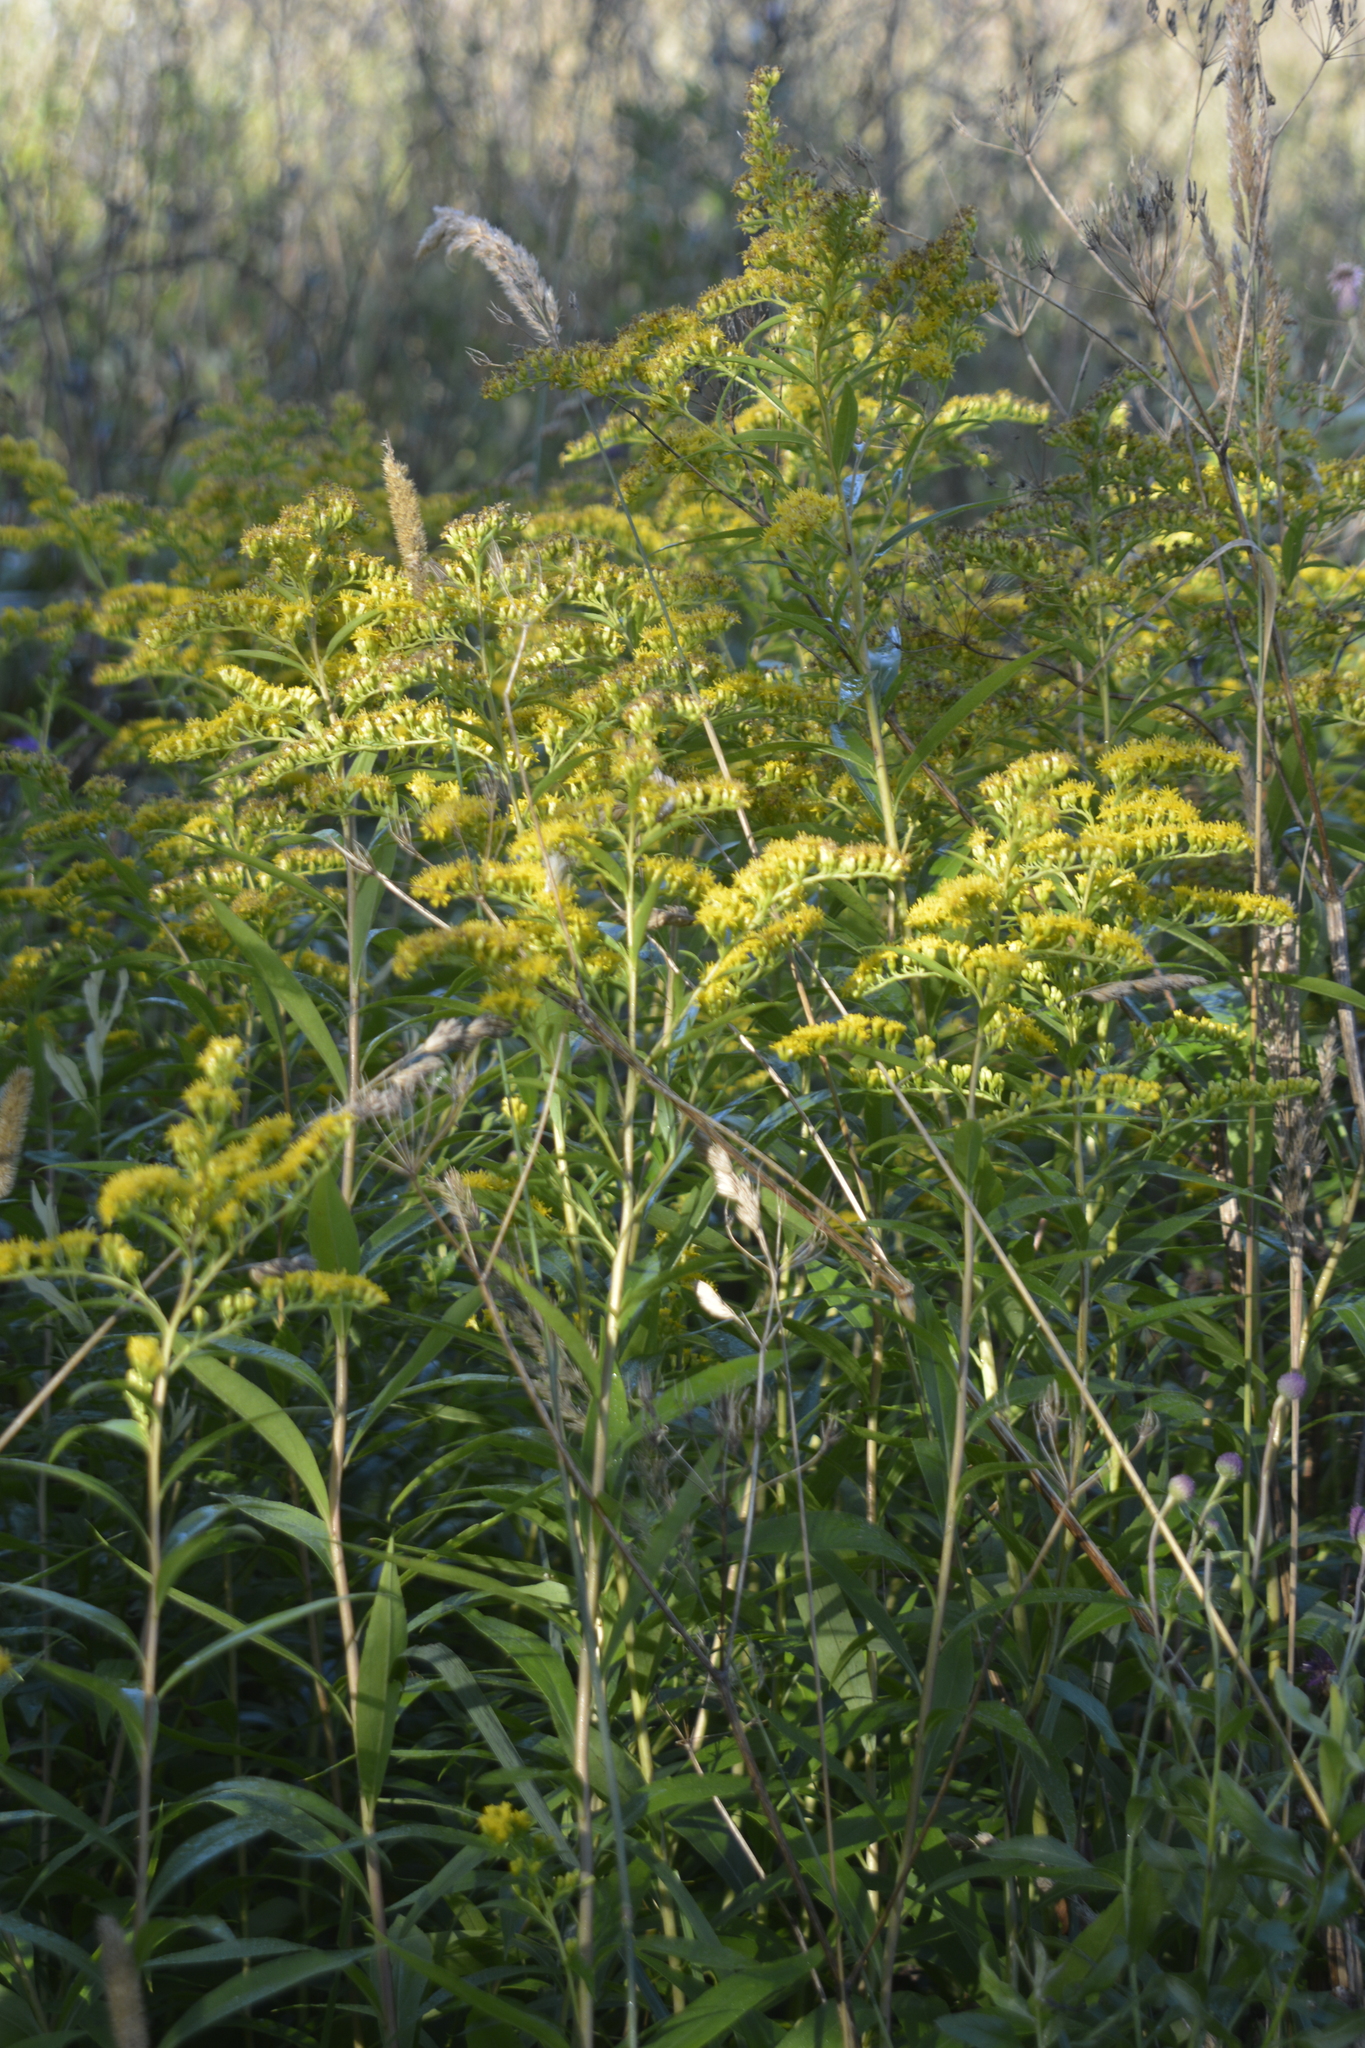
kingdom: Plantae
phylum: Tracheophyta
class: Magnoliopsida
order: Asterales
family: Asteraceae
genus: Solidago
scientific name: Solidago gigantea
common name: Giant goldenrod
